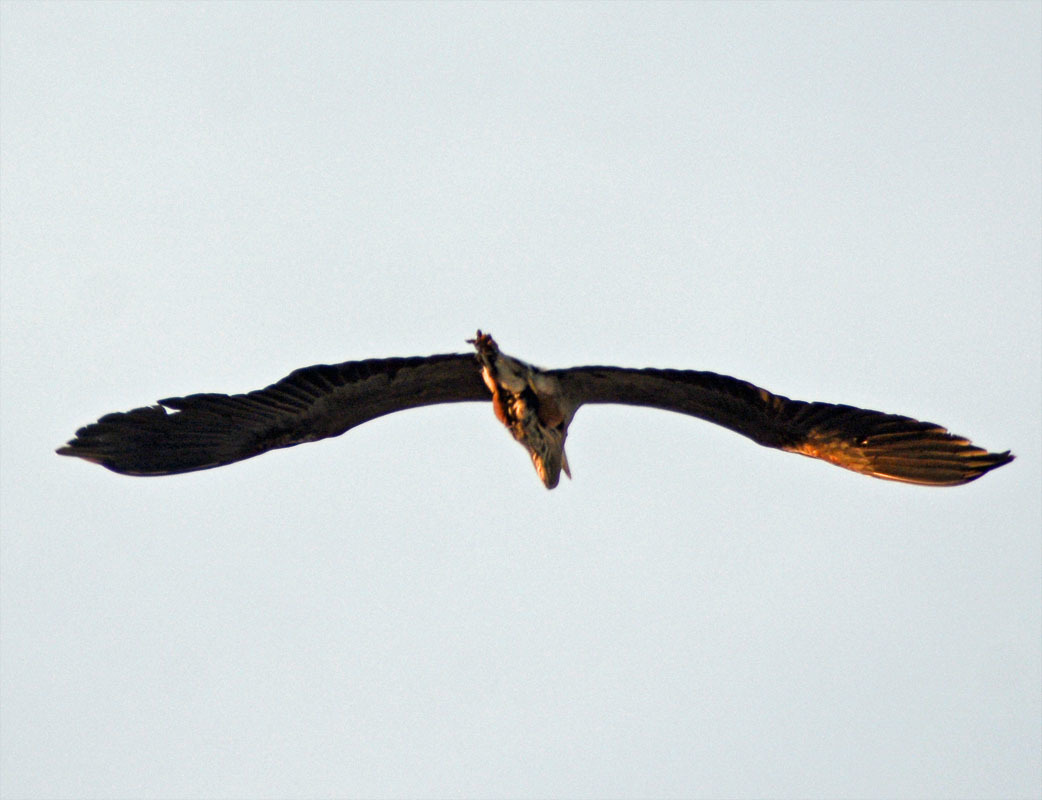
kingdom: Animalia
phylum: Chordata
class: Aves
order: Pelecaniformes
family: Ardeidae
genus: Ardea
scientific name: Ardea herodias
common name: Great blue heron
